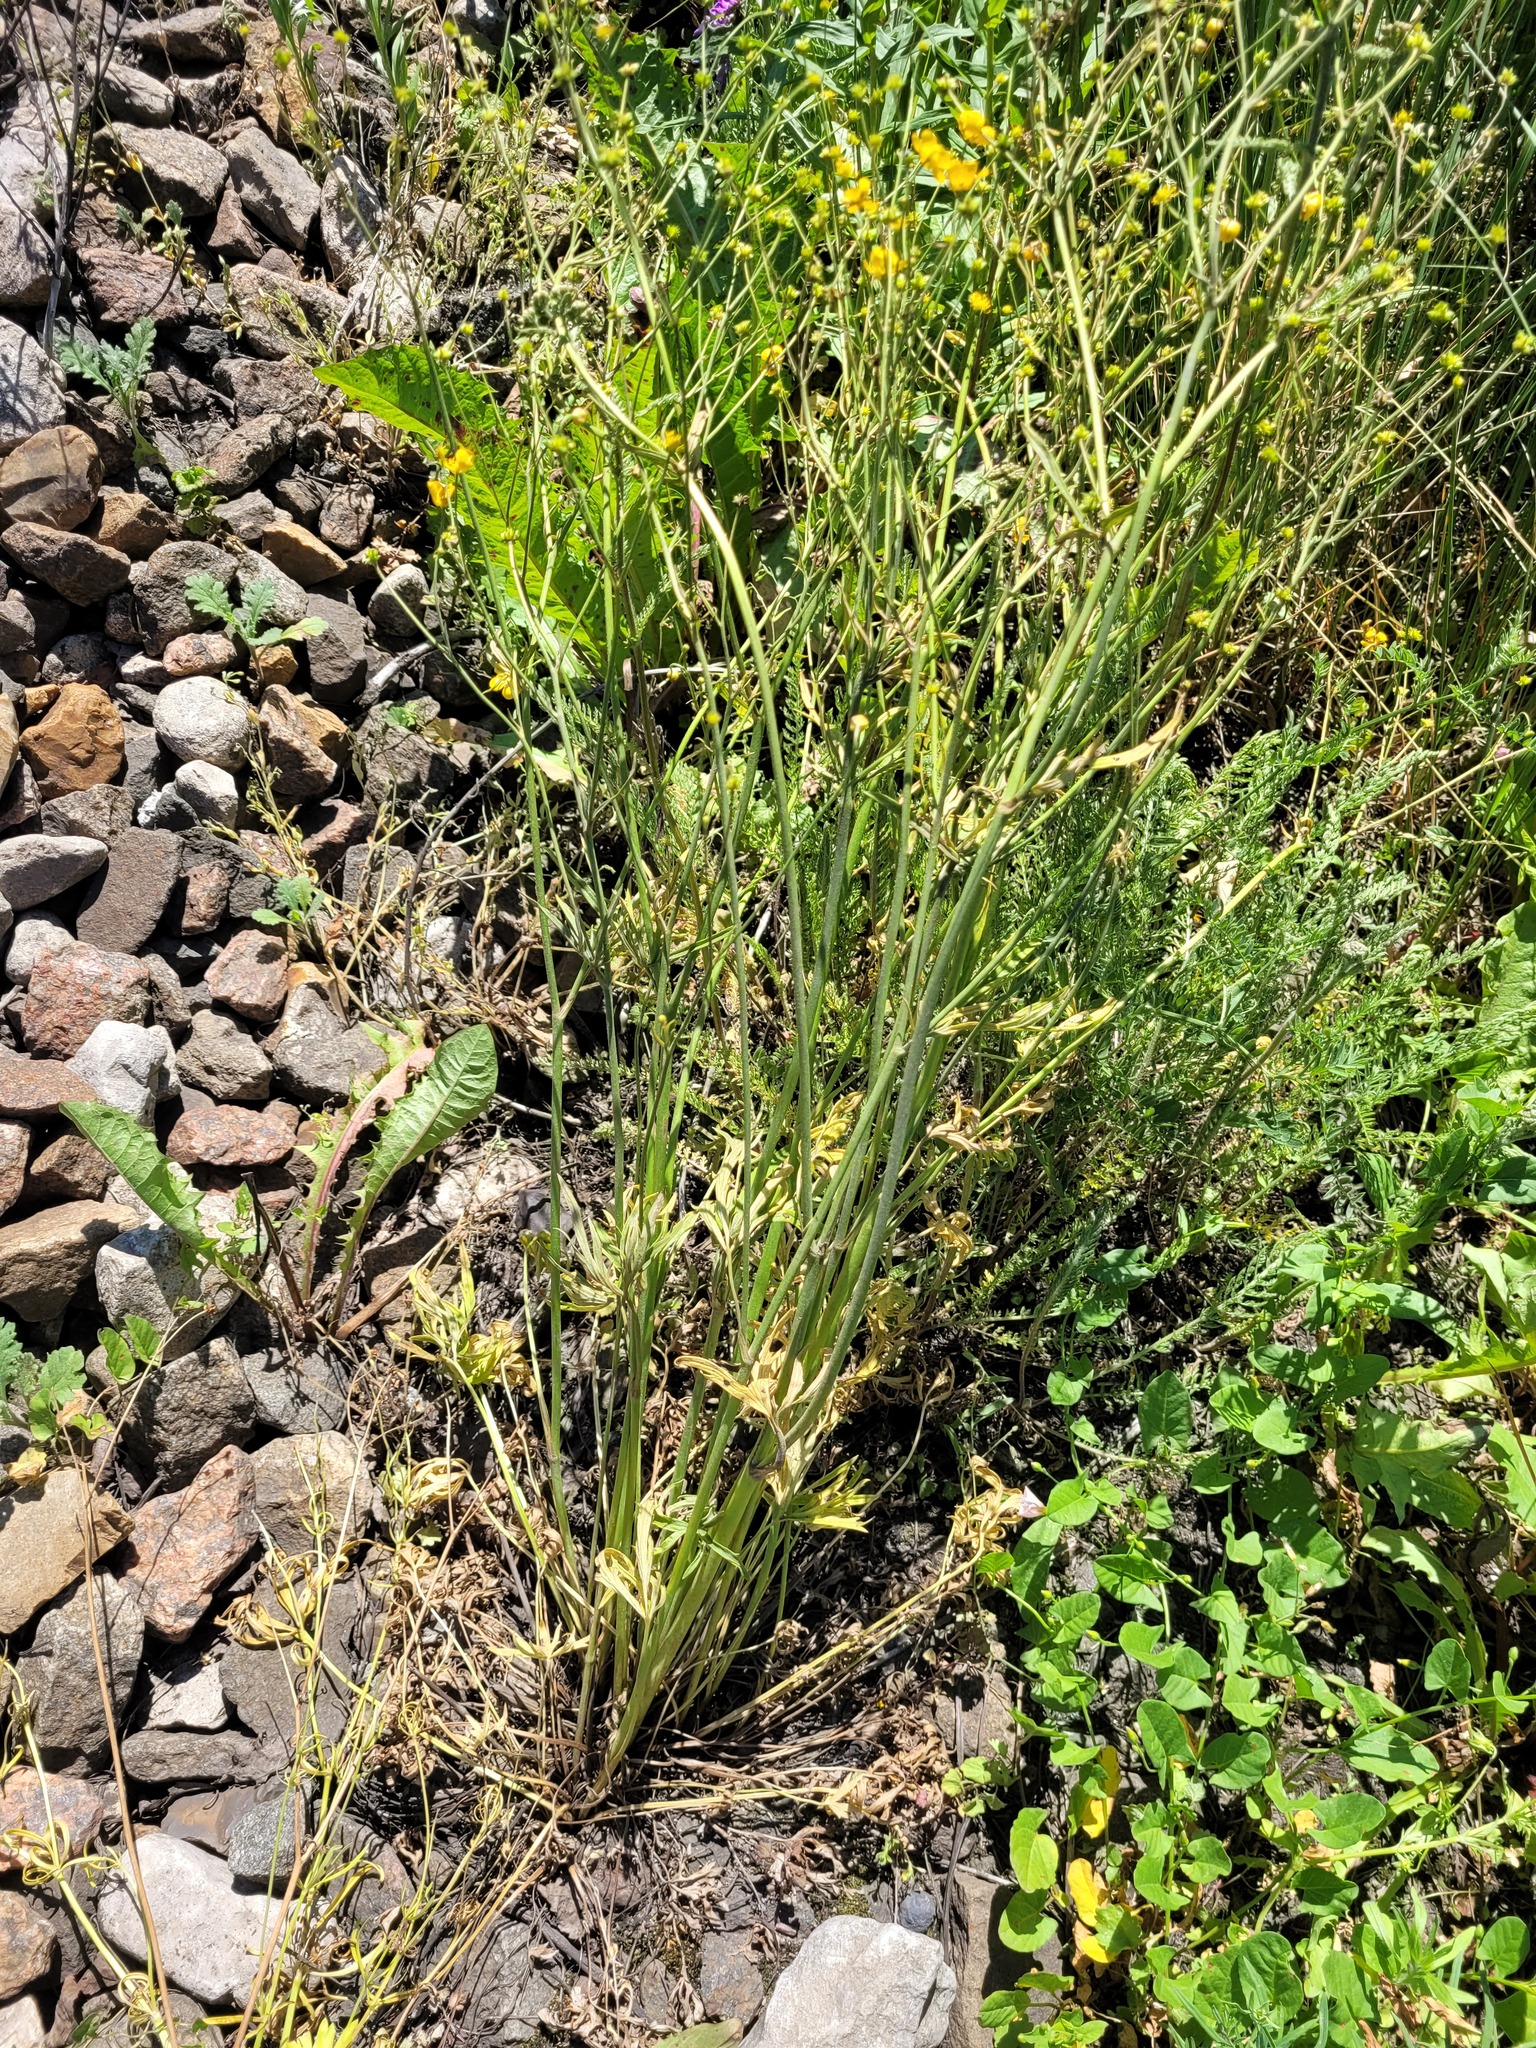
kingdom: Plantae
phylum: Tracheophyta
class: Magnoliopsida
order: Ranunculales
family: Ranunculaceae
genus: Ranunculus
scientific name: Ranunculus acris
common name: Meadow buttercup
